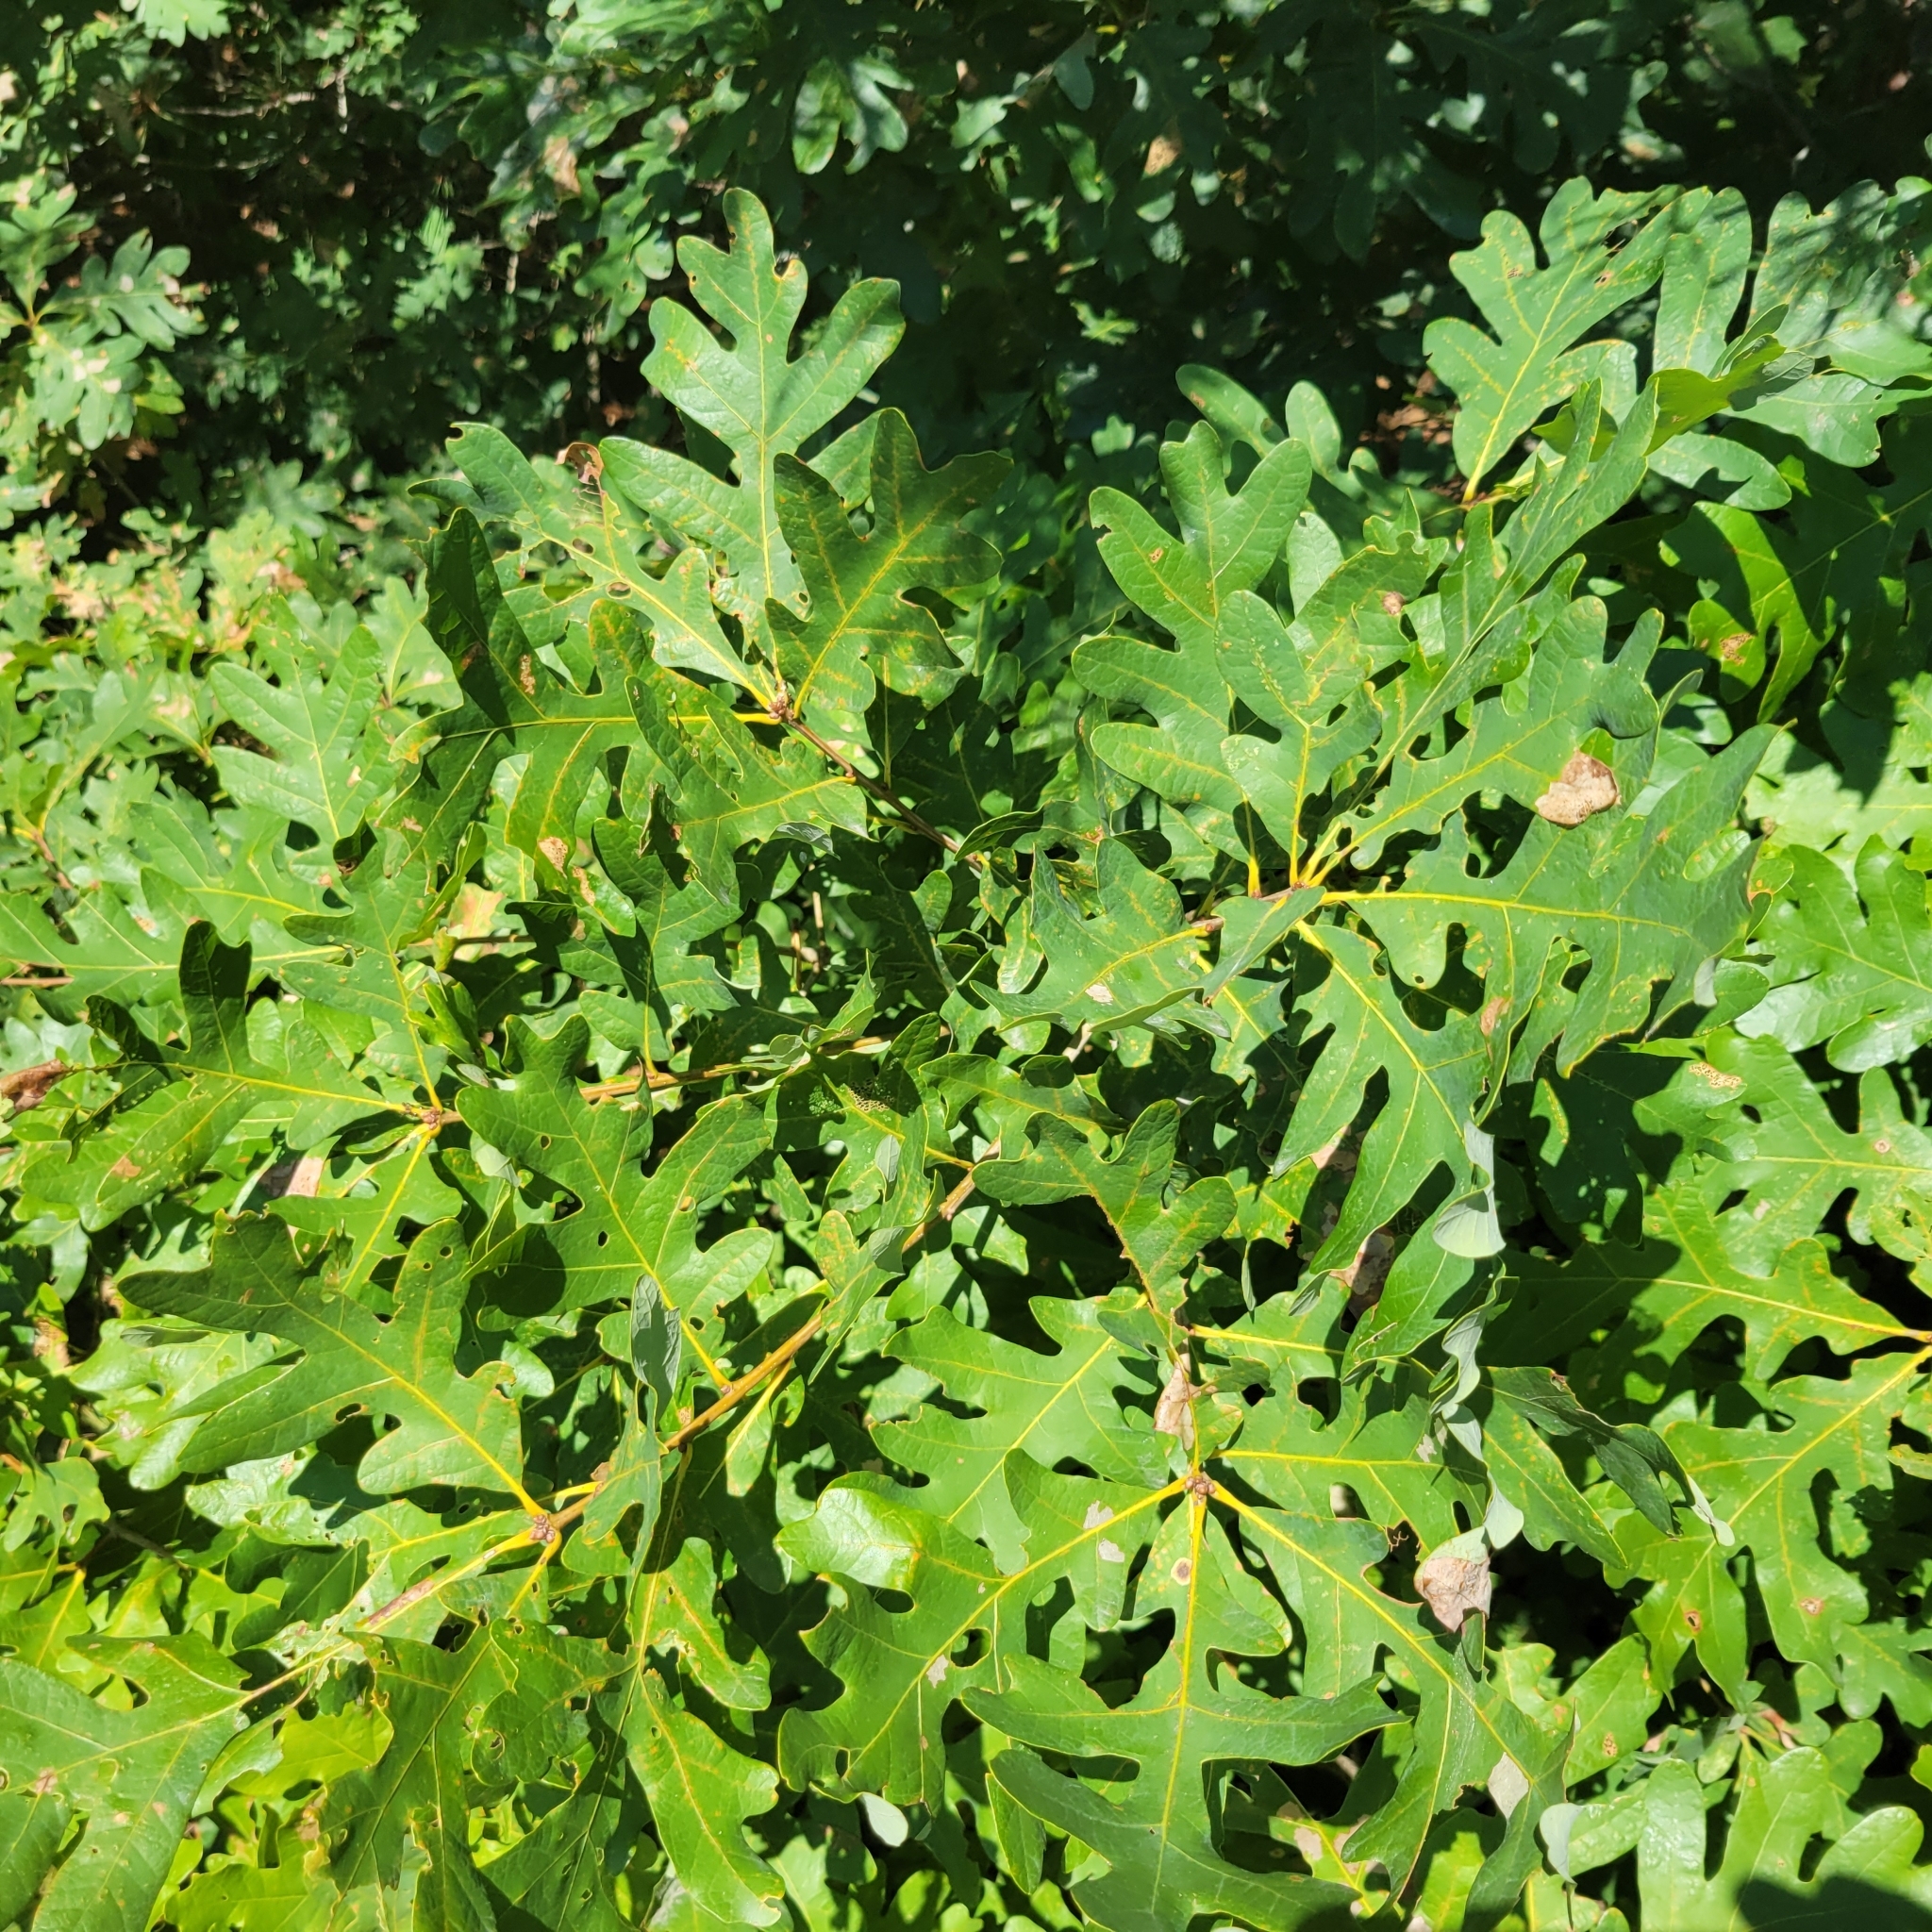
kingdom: Plantae
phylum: Tracheophyta
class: Magnoliopsida
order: Fagales
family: Fagaceae
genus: Quercus
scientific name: Quercus alba
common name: White oak
